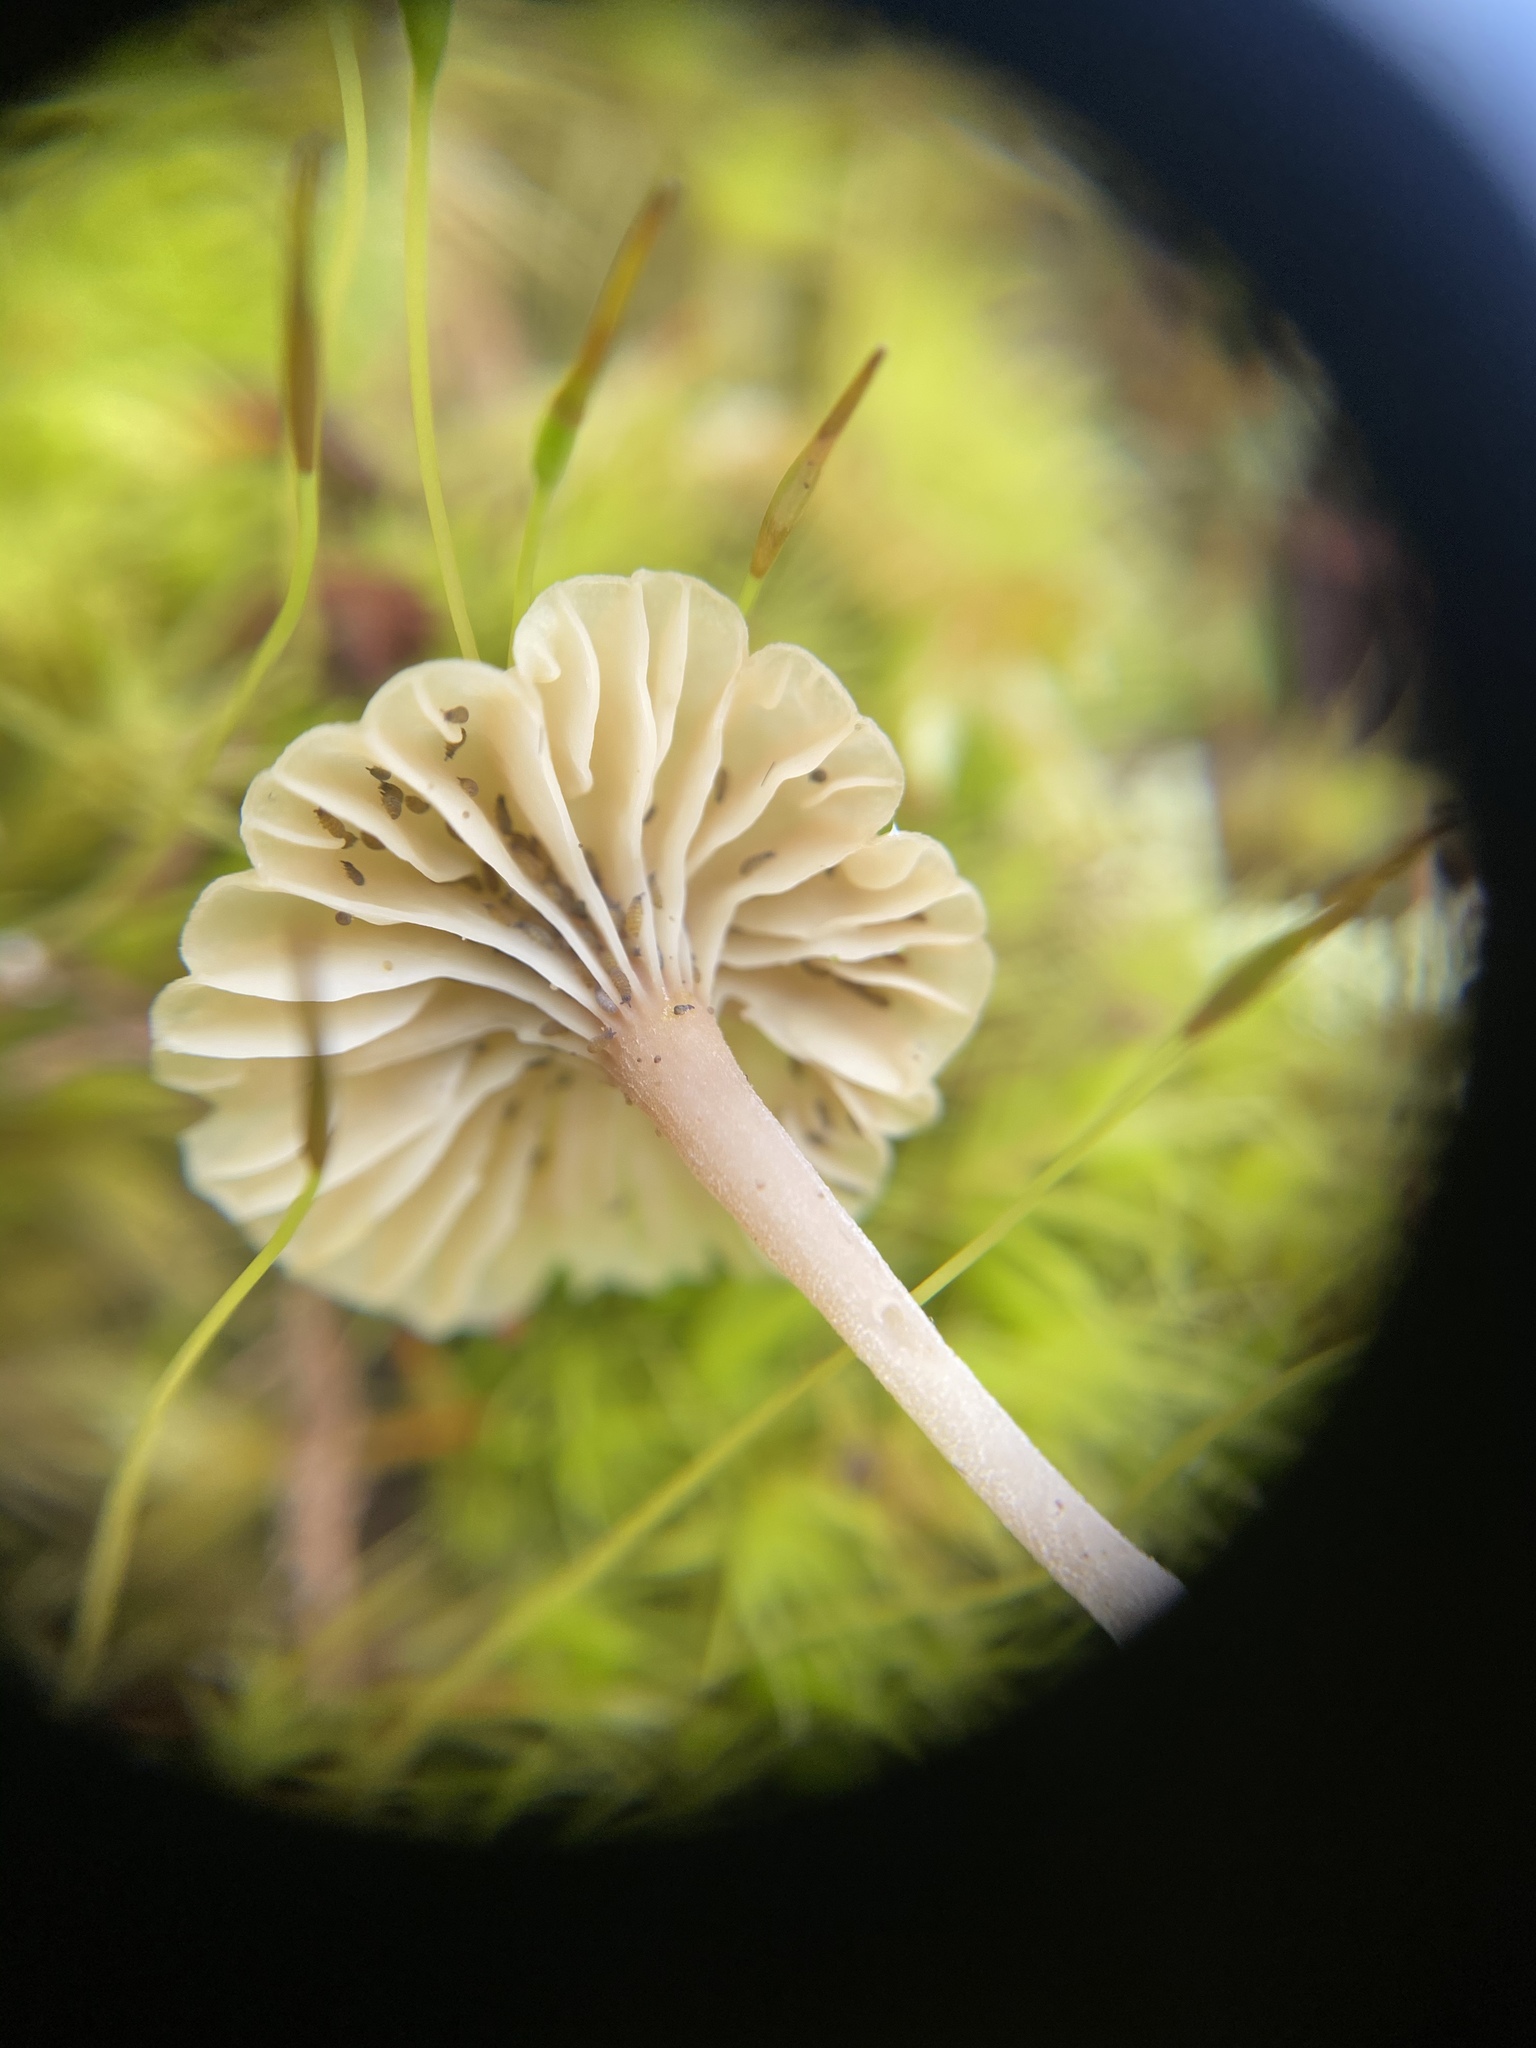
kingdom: Fungi
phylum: Basidiomycota
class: Agaricomycetes
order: Agaricales
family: Hygrophoraceae
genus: Lichenomphalia
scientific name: Lichenomphalia
